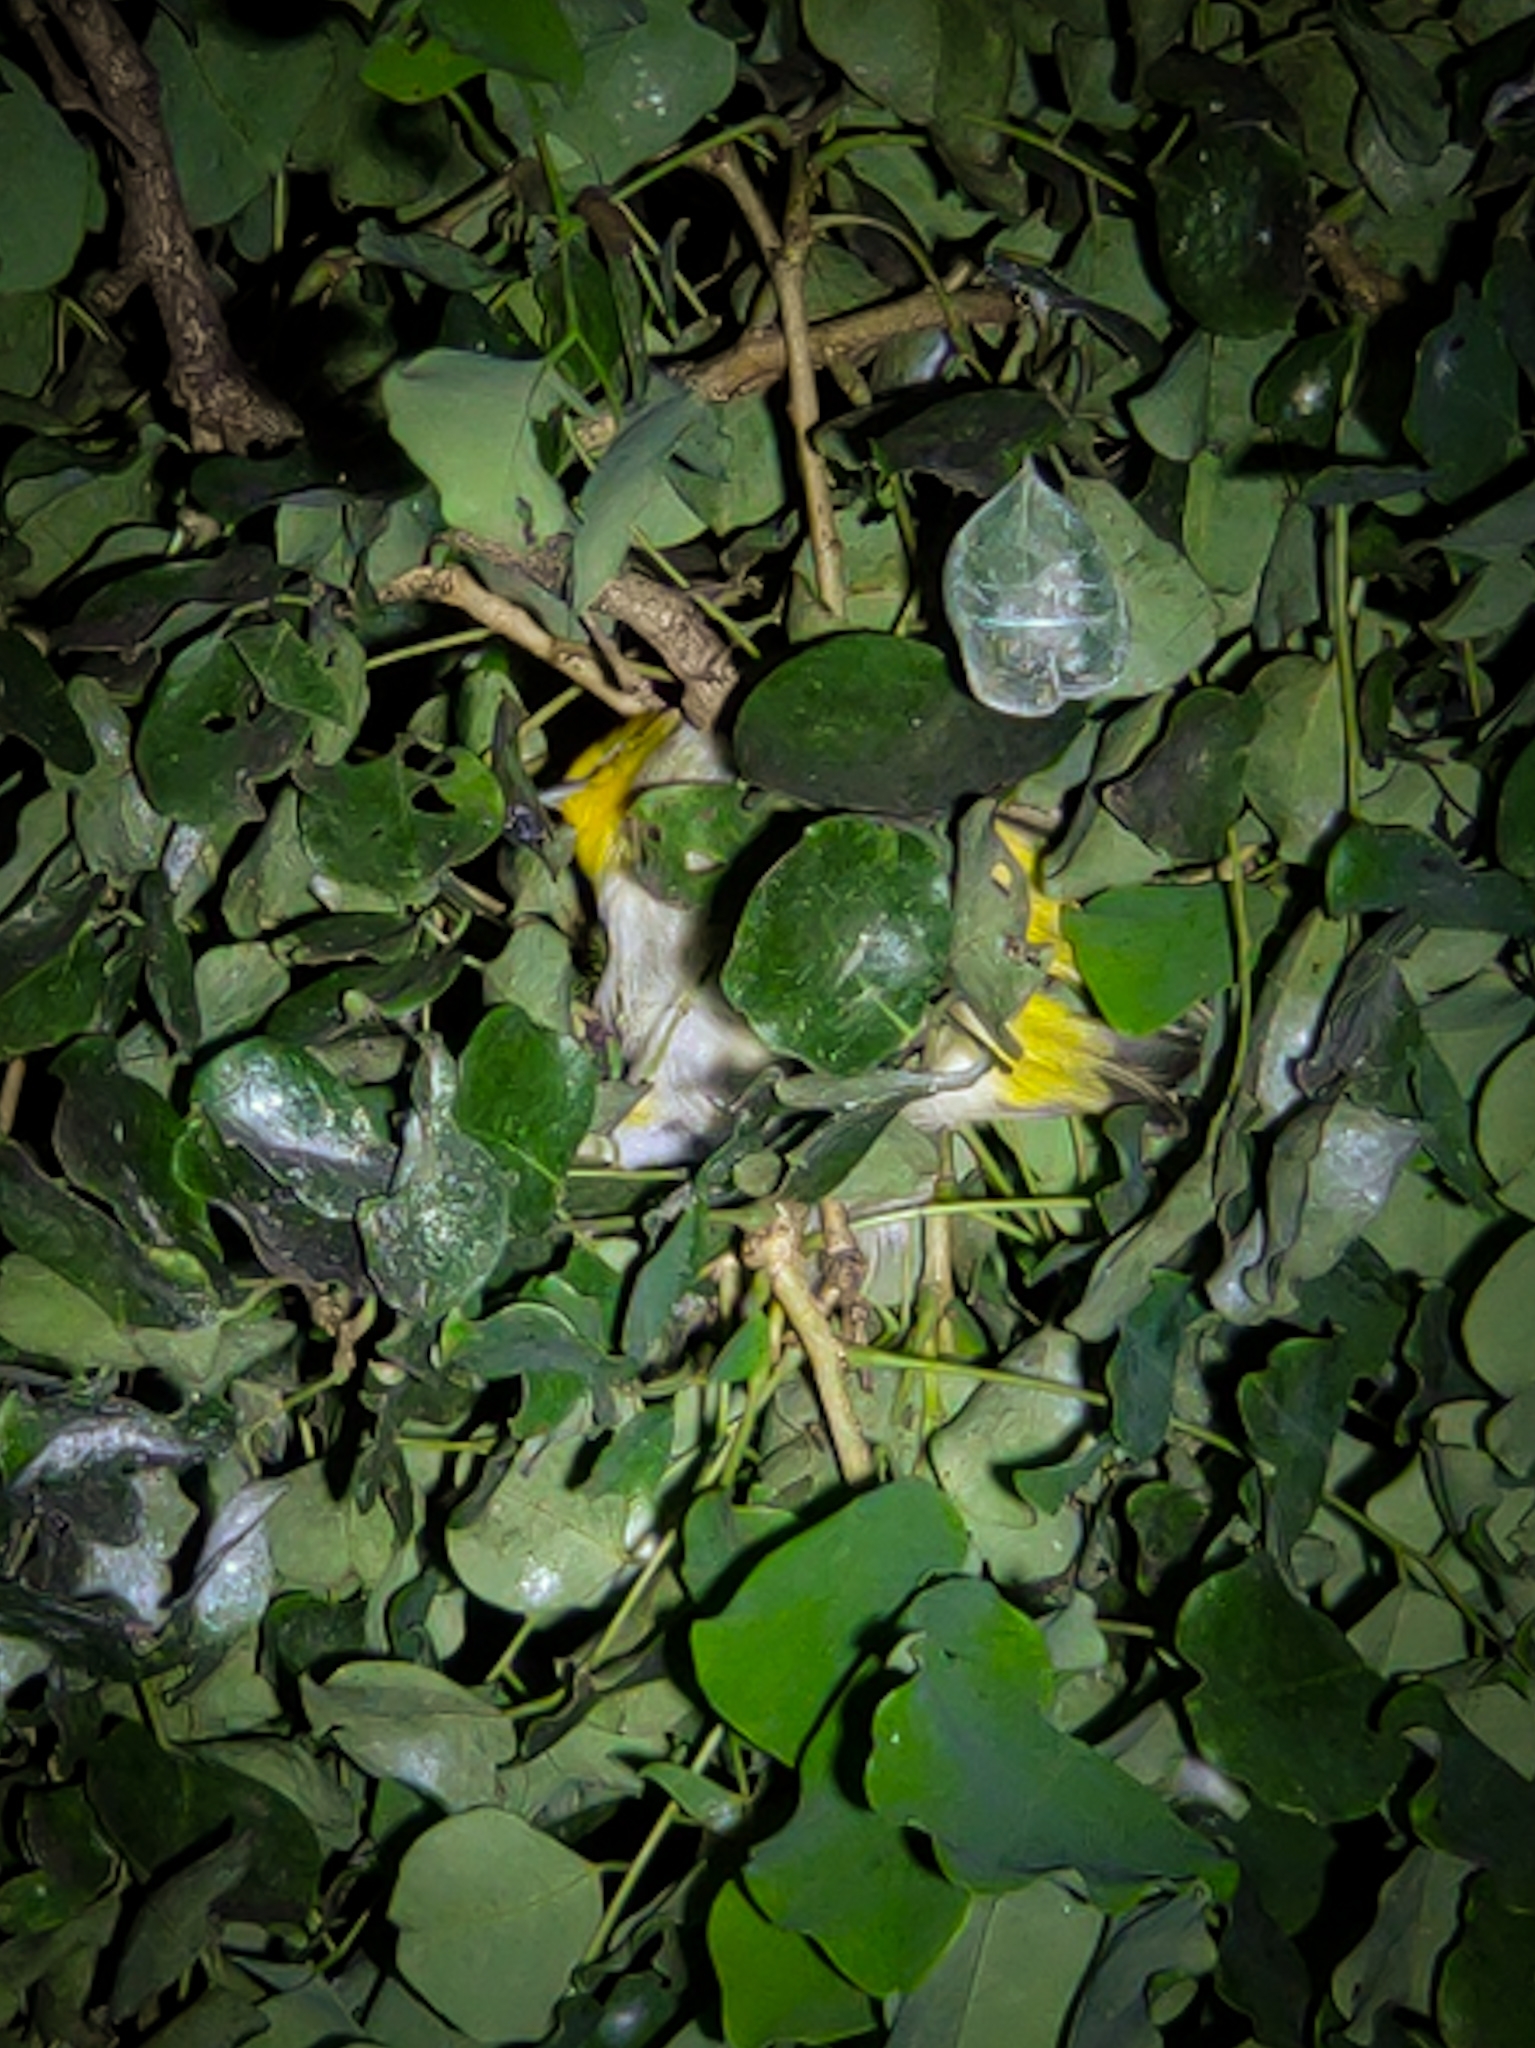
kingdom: Animalia
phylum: Chordata
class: Aves
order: Passeriformes
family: Zosteropidae
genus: Zosterops
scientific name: Zosterops palpebrosus
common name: Oriental white-eye
